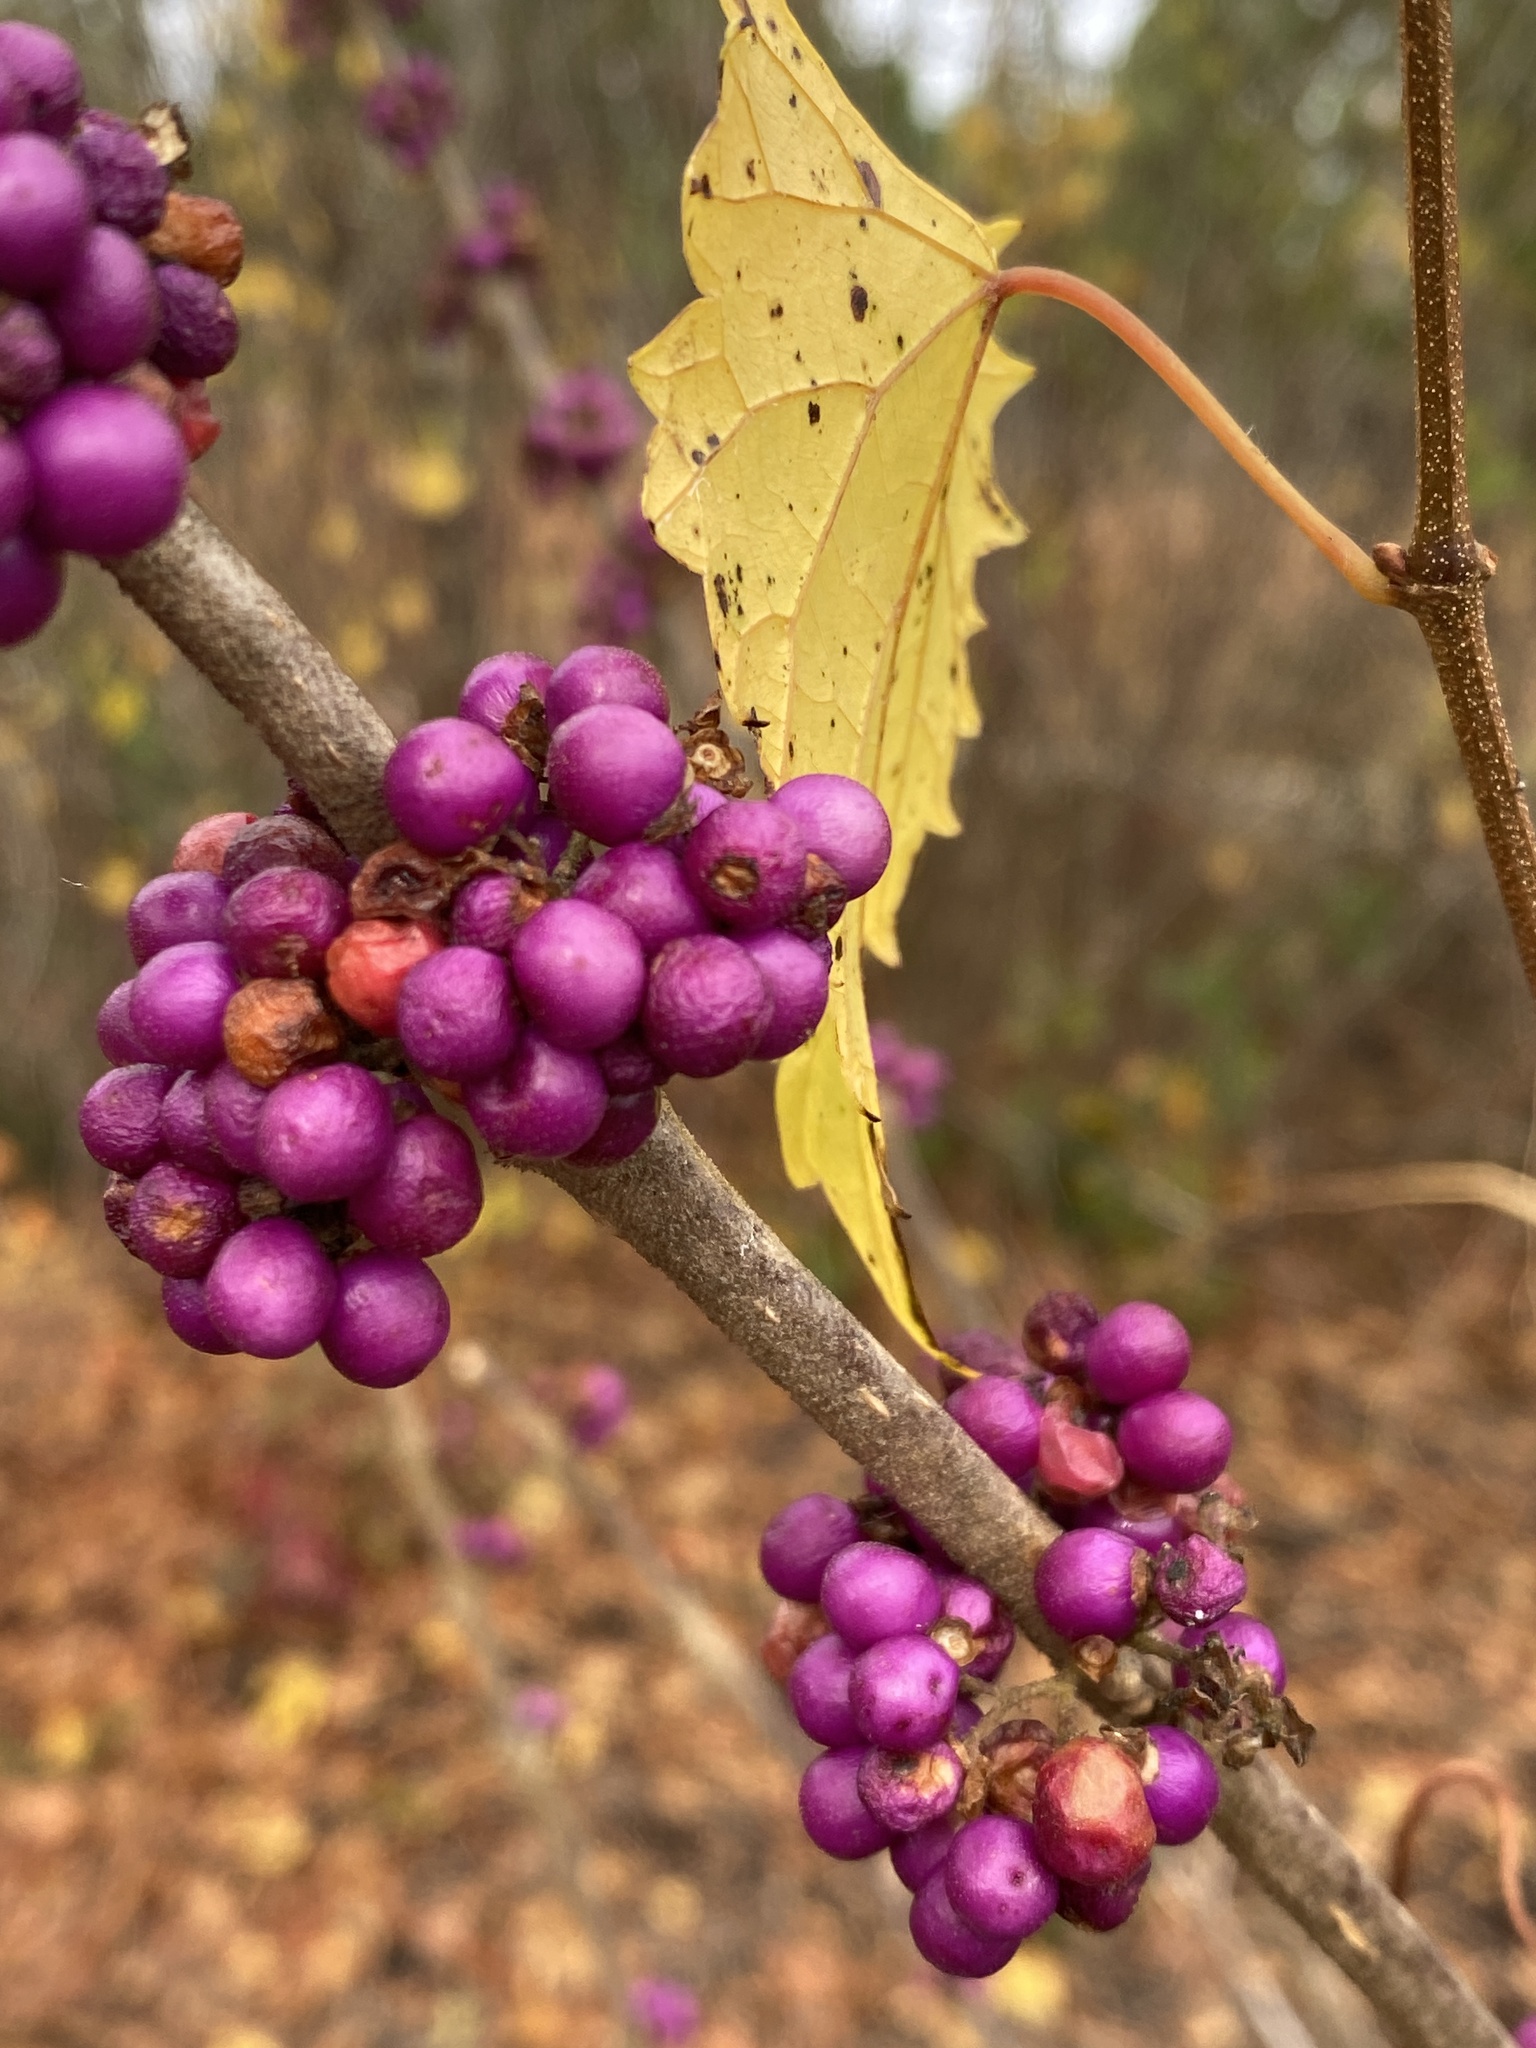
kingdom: Plantae
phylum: Tracheophyta
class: Magnoliopsida
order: Lamiales
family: Lamiaceae
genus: Callicarpa
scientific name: Callicarpa americana
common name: American beautyberry
